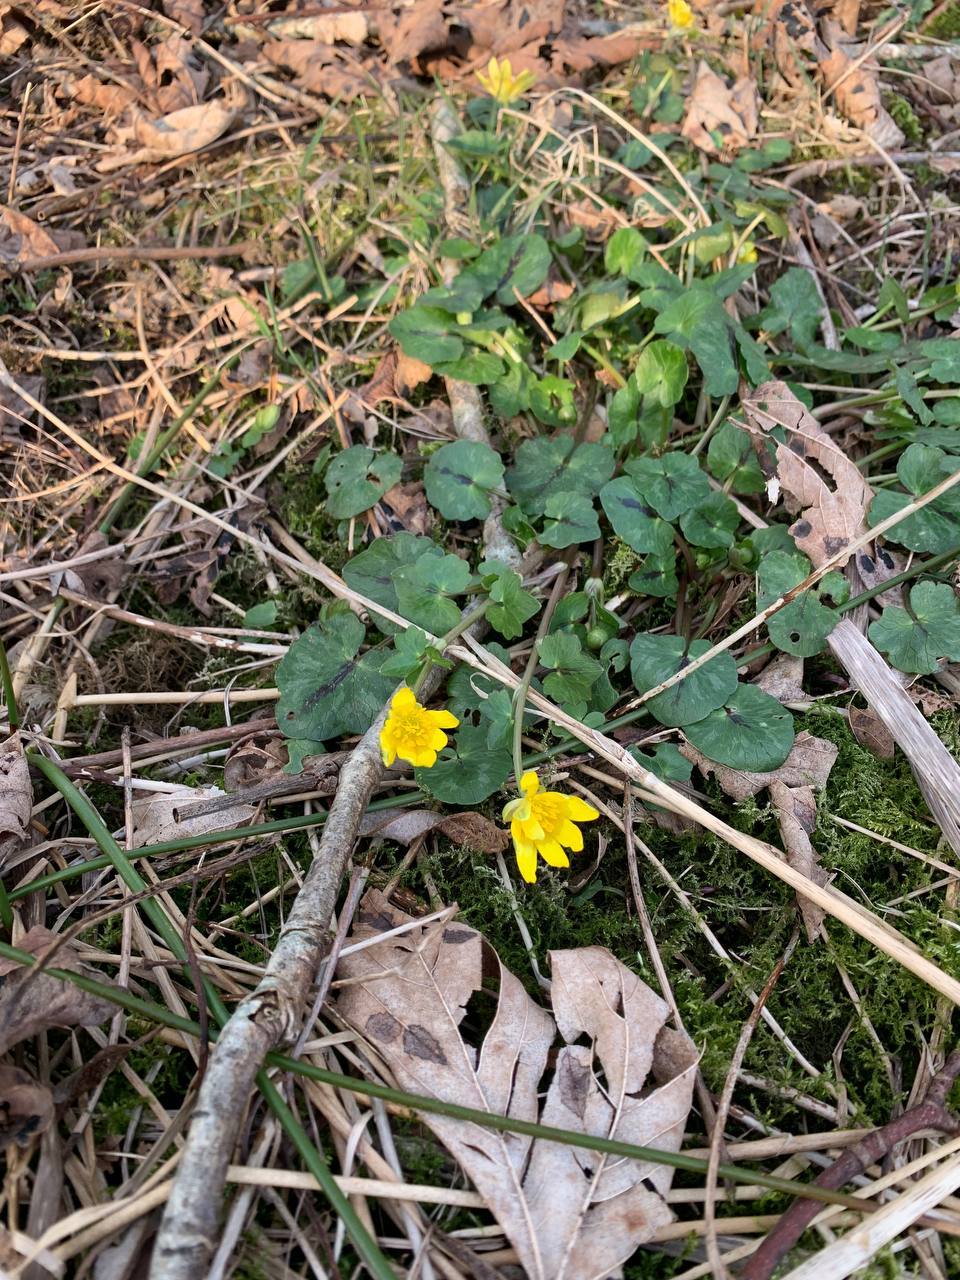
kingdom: Plantae
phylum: Tracheophyta
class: Magnoliopsida
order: Ranunculales
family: Ranunculaceae
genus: Ficaria
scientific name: Ficaria verna
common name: Lesser celandine
